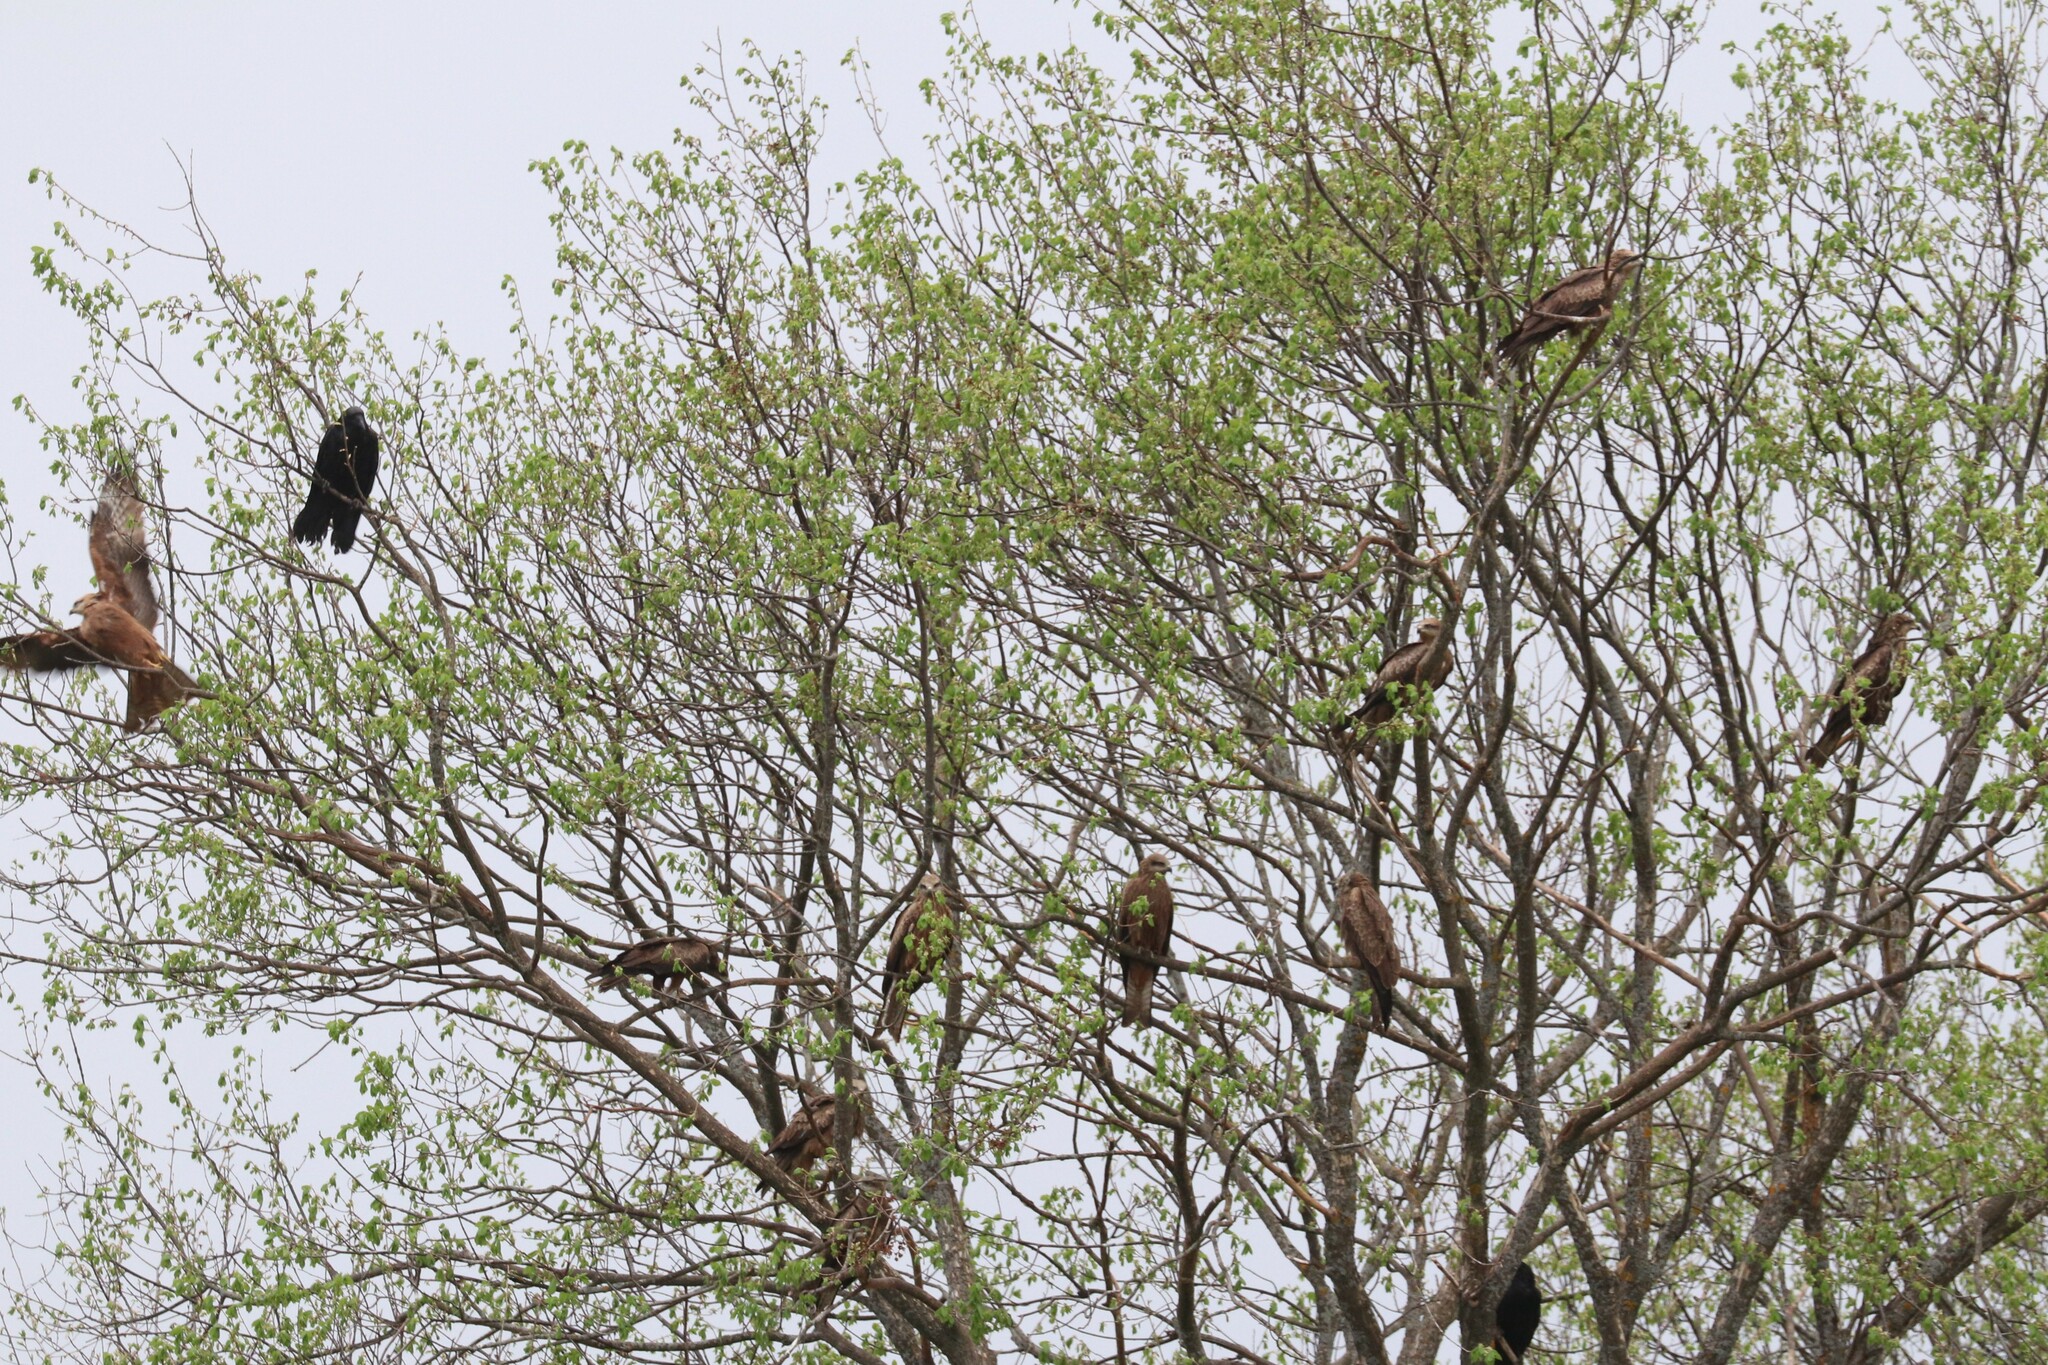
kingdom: Animalia
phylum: Chordata
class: Aves
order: Accipitriformes
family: Accipitridae
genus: Milvus
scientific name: Milvus migrans
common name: Black kite
